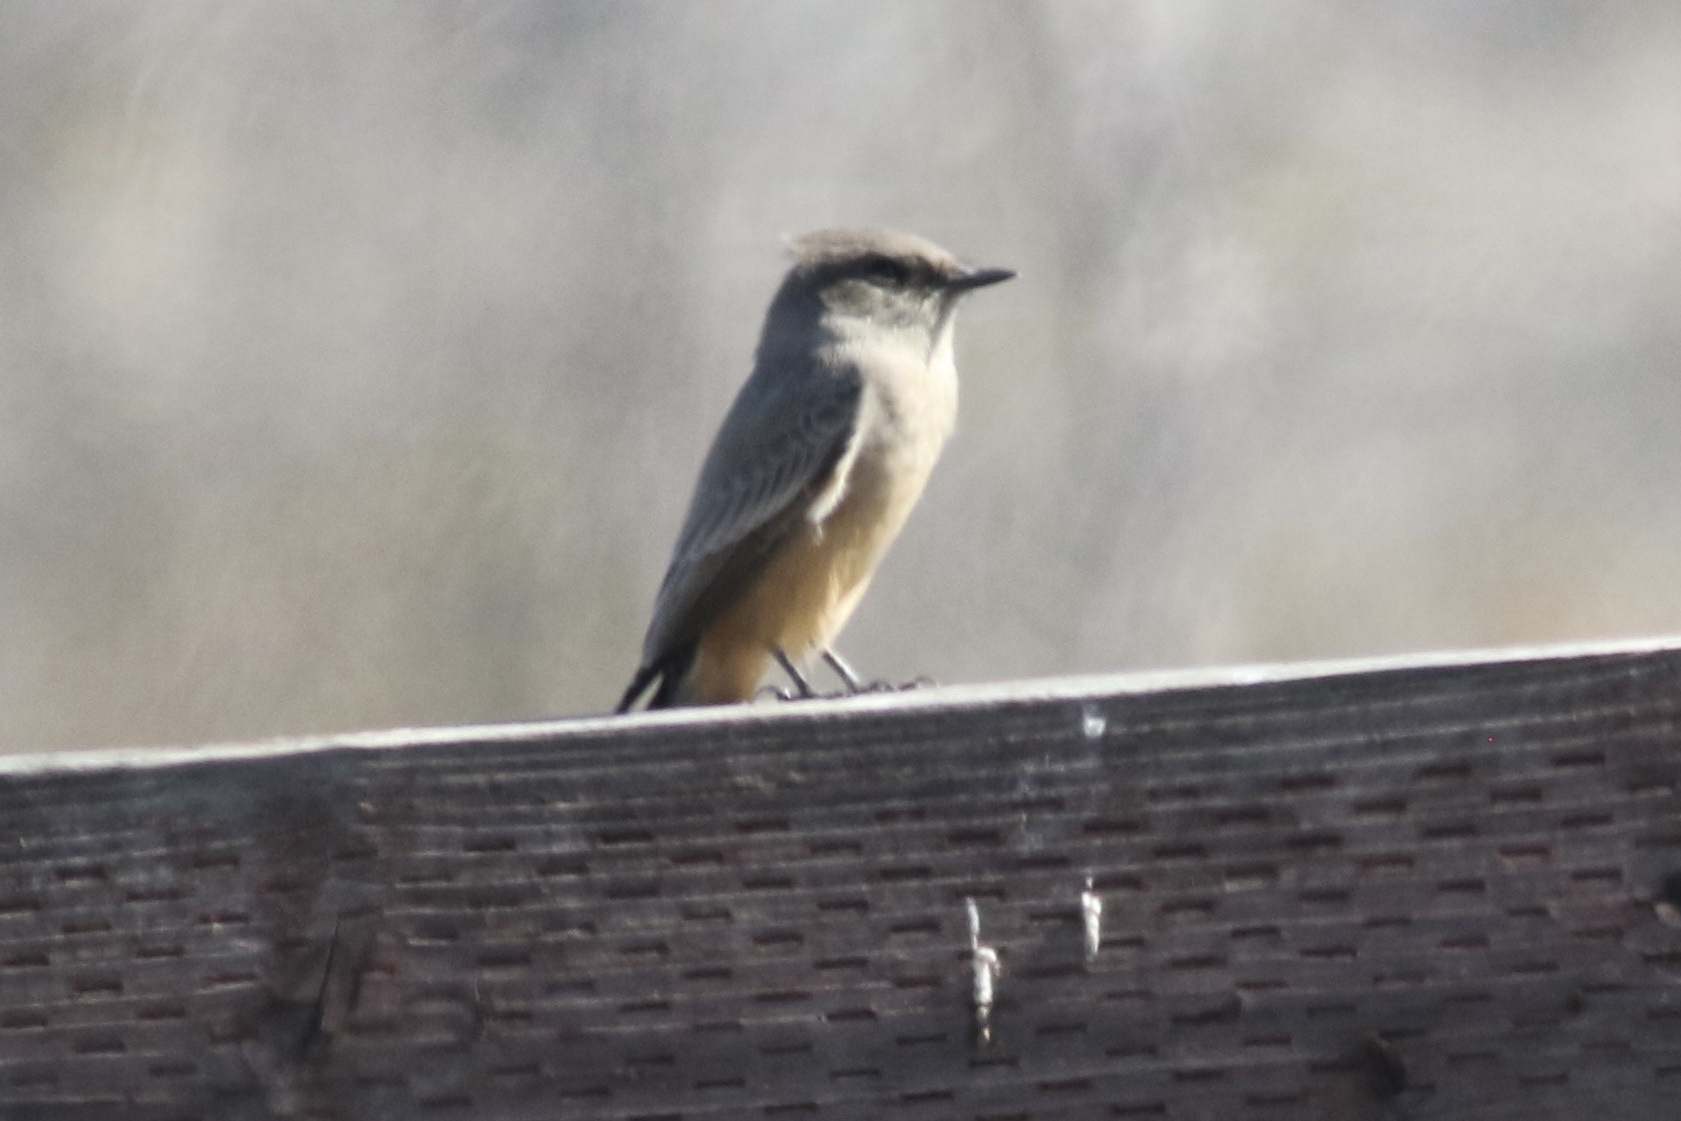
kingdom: Animalia
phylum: Chordata
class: Aves
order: Passeriformes
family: Tyrannidae
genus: Sayornis
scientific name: Sayornis saya
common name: Say's phoebe
